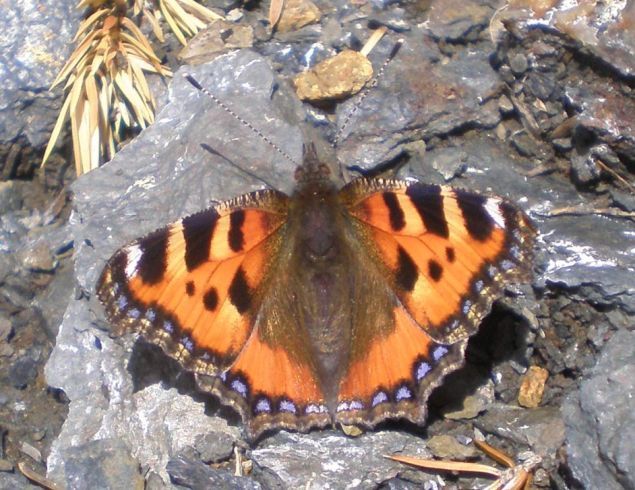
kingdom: Animalia
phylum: Arthropoda
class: Insecta
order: Lepidoptera
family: Nymphalidae
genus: Aglais
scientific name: Aglais urticae
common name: Small tortoiseshell
